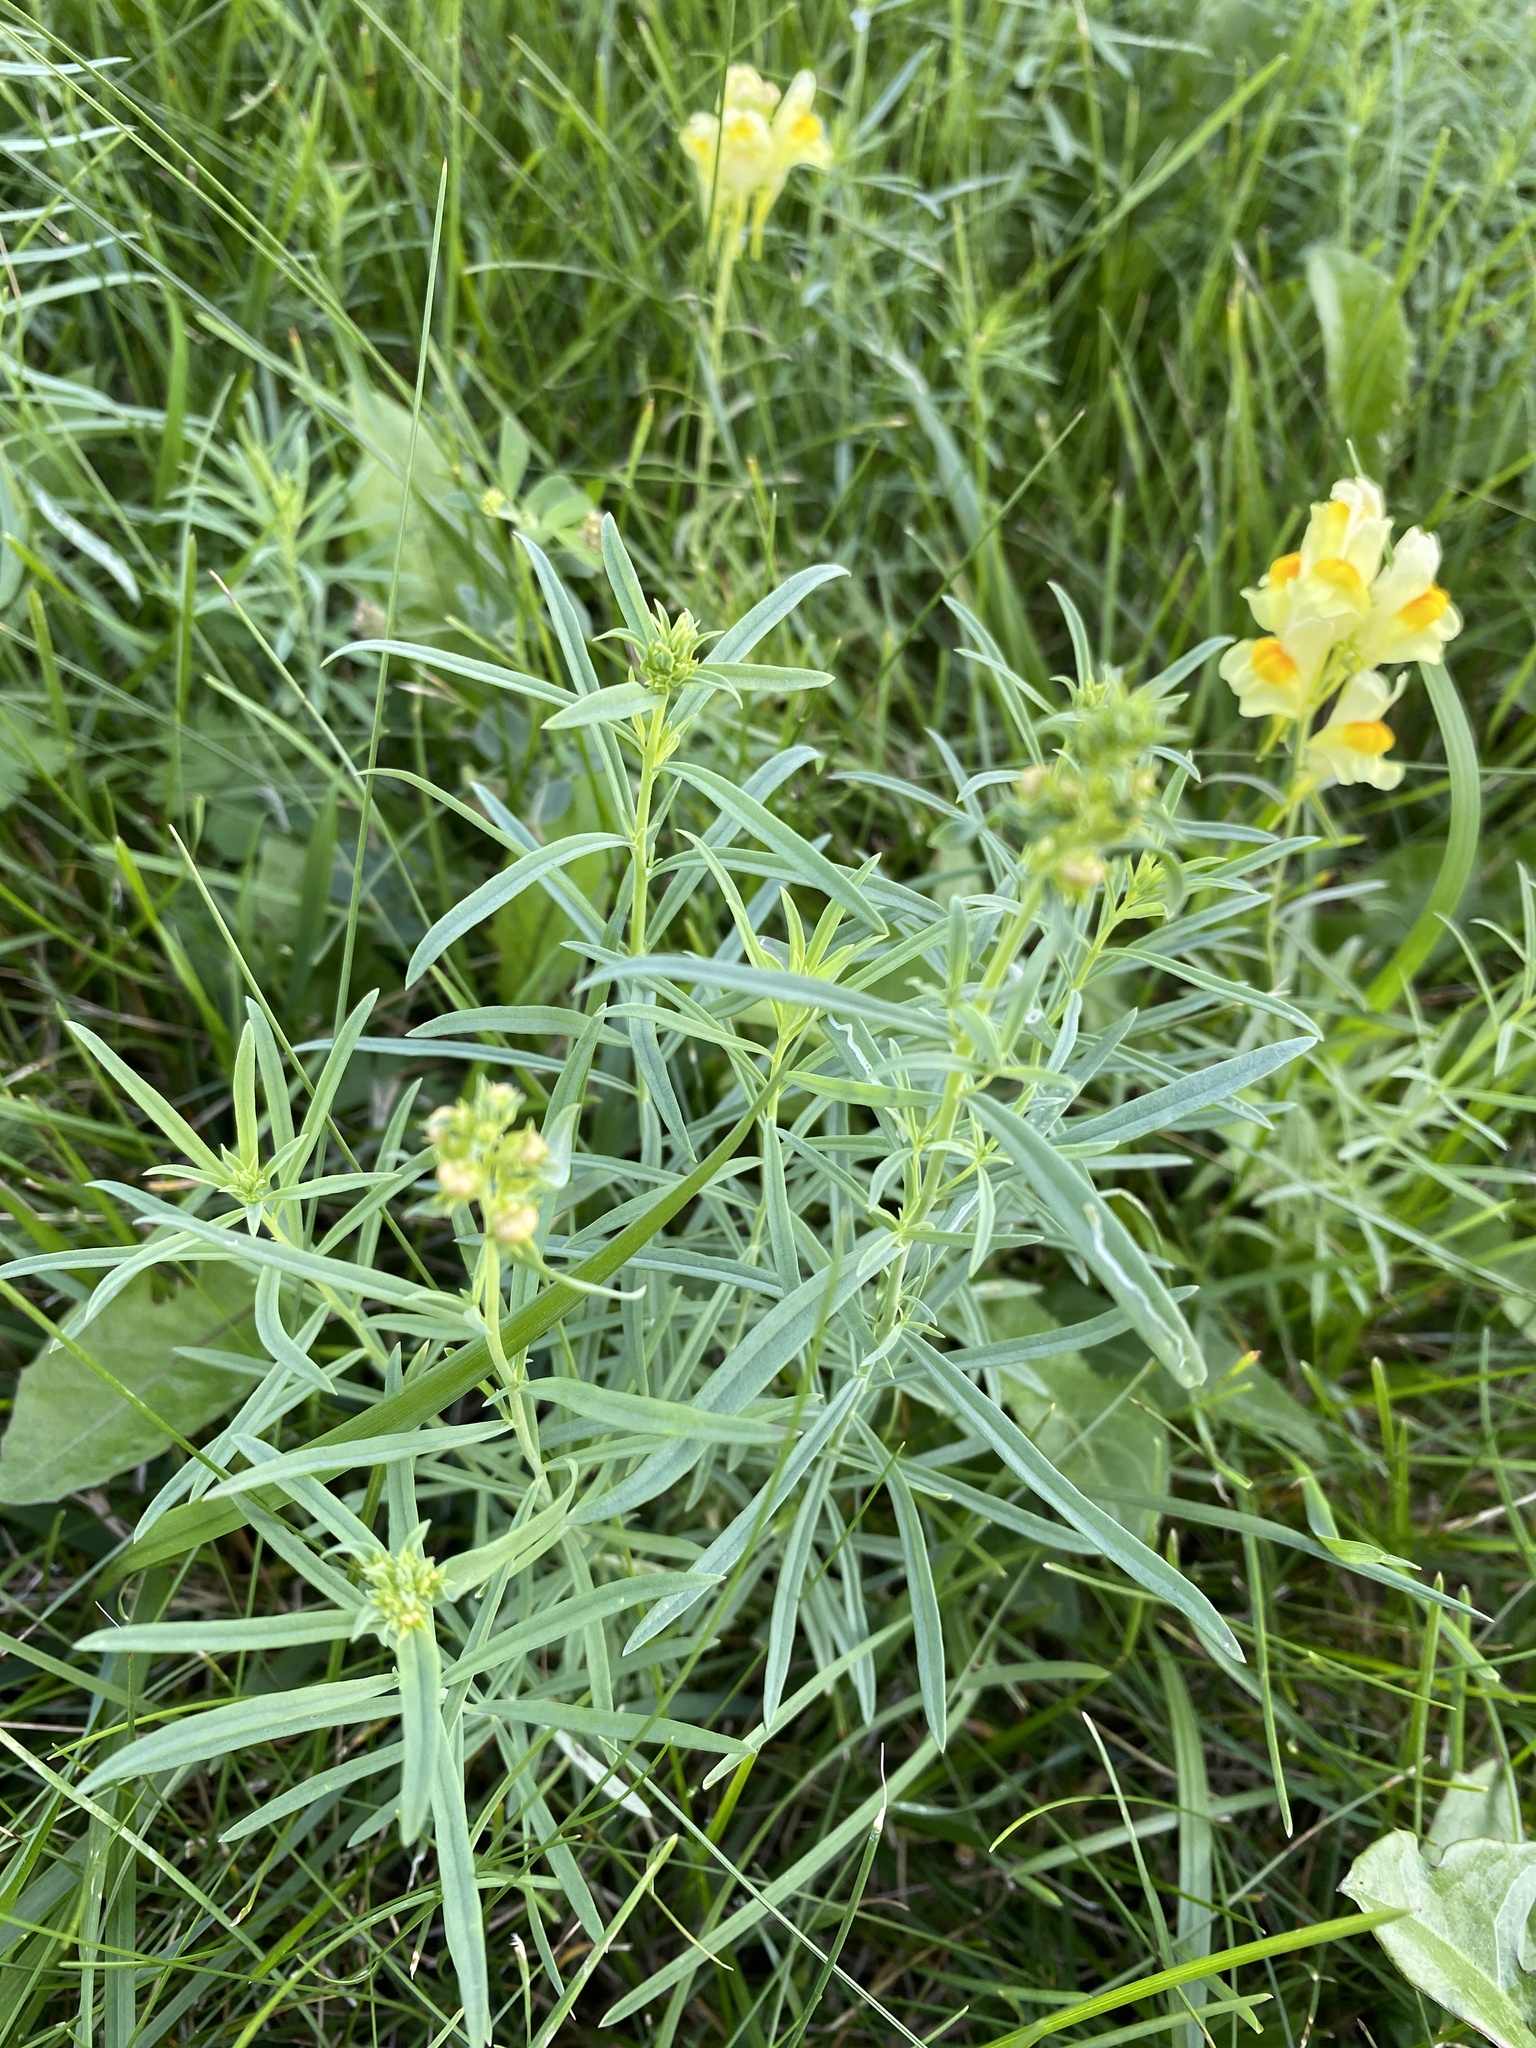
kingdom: Plantae
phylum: Tracheophyta
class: Magnoliopsida
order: Lamiales
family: Plantaginaceae
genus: Linaria
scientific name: Linaria vulgaris
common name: Butter and eggs
